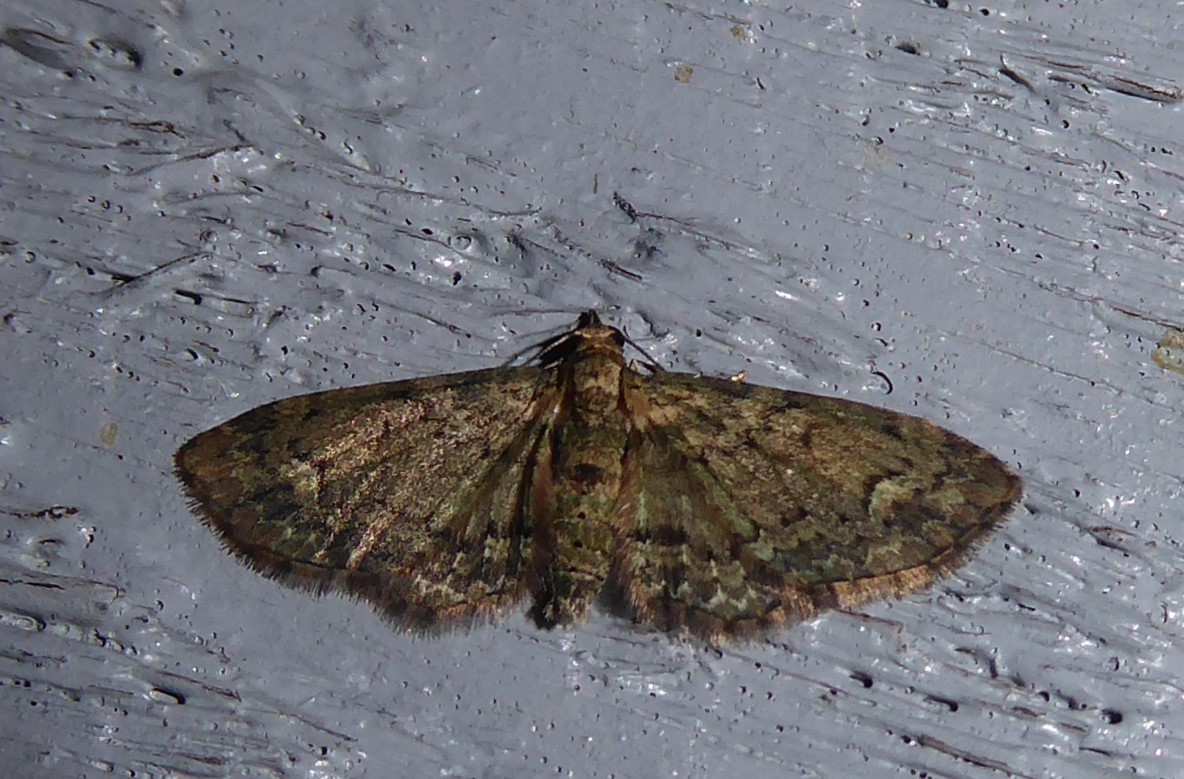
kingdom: Animalia
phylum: Arthropoda
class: Insecta
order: Lepidoptera
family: Geometridae
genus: Pasiphilodes
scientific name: Pasiphilodes testulata
